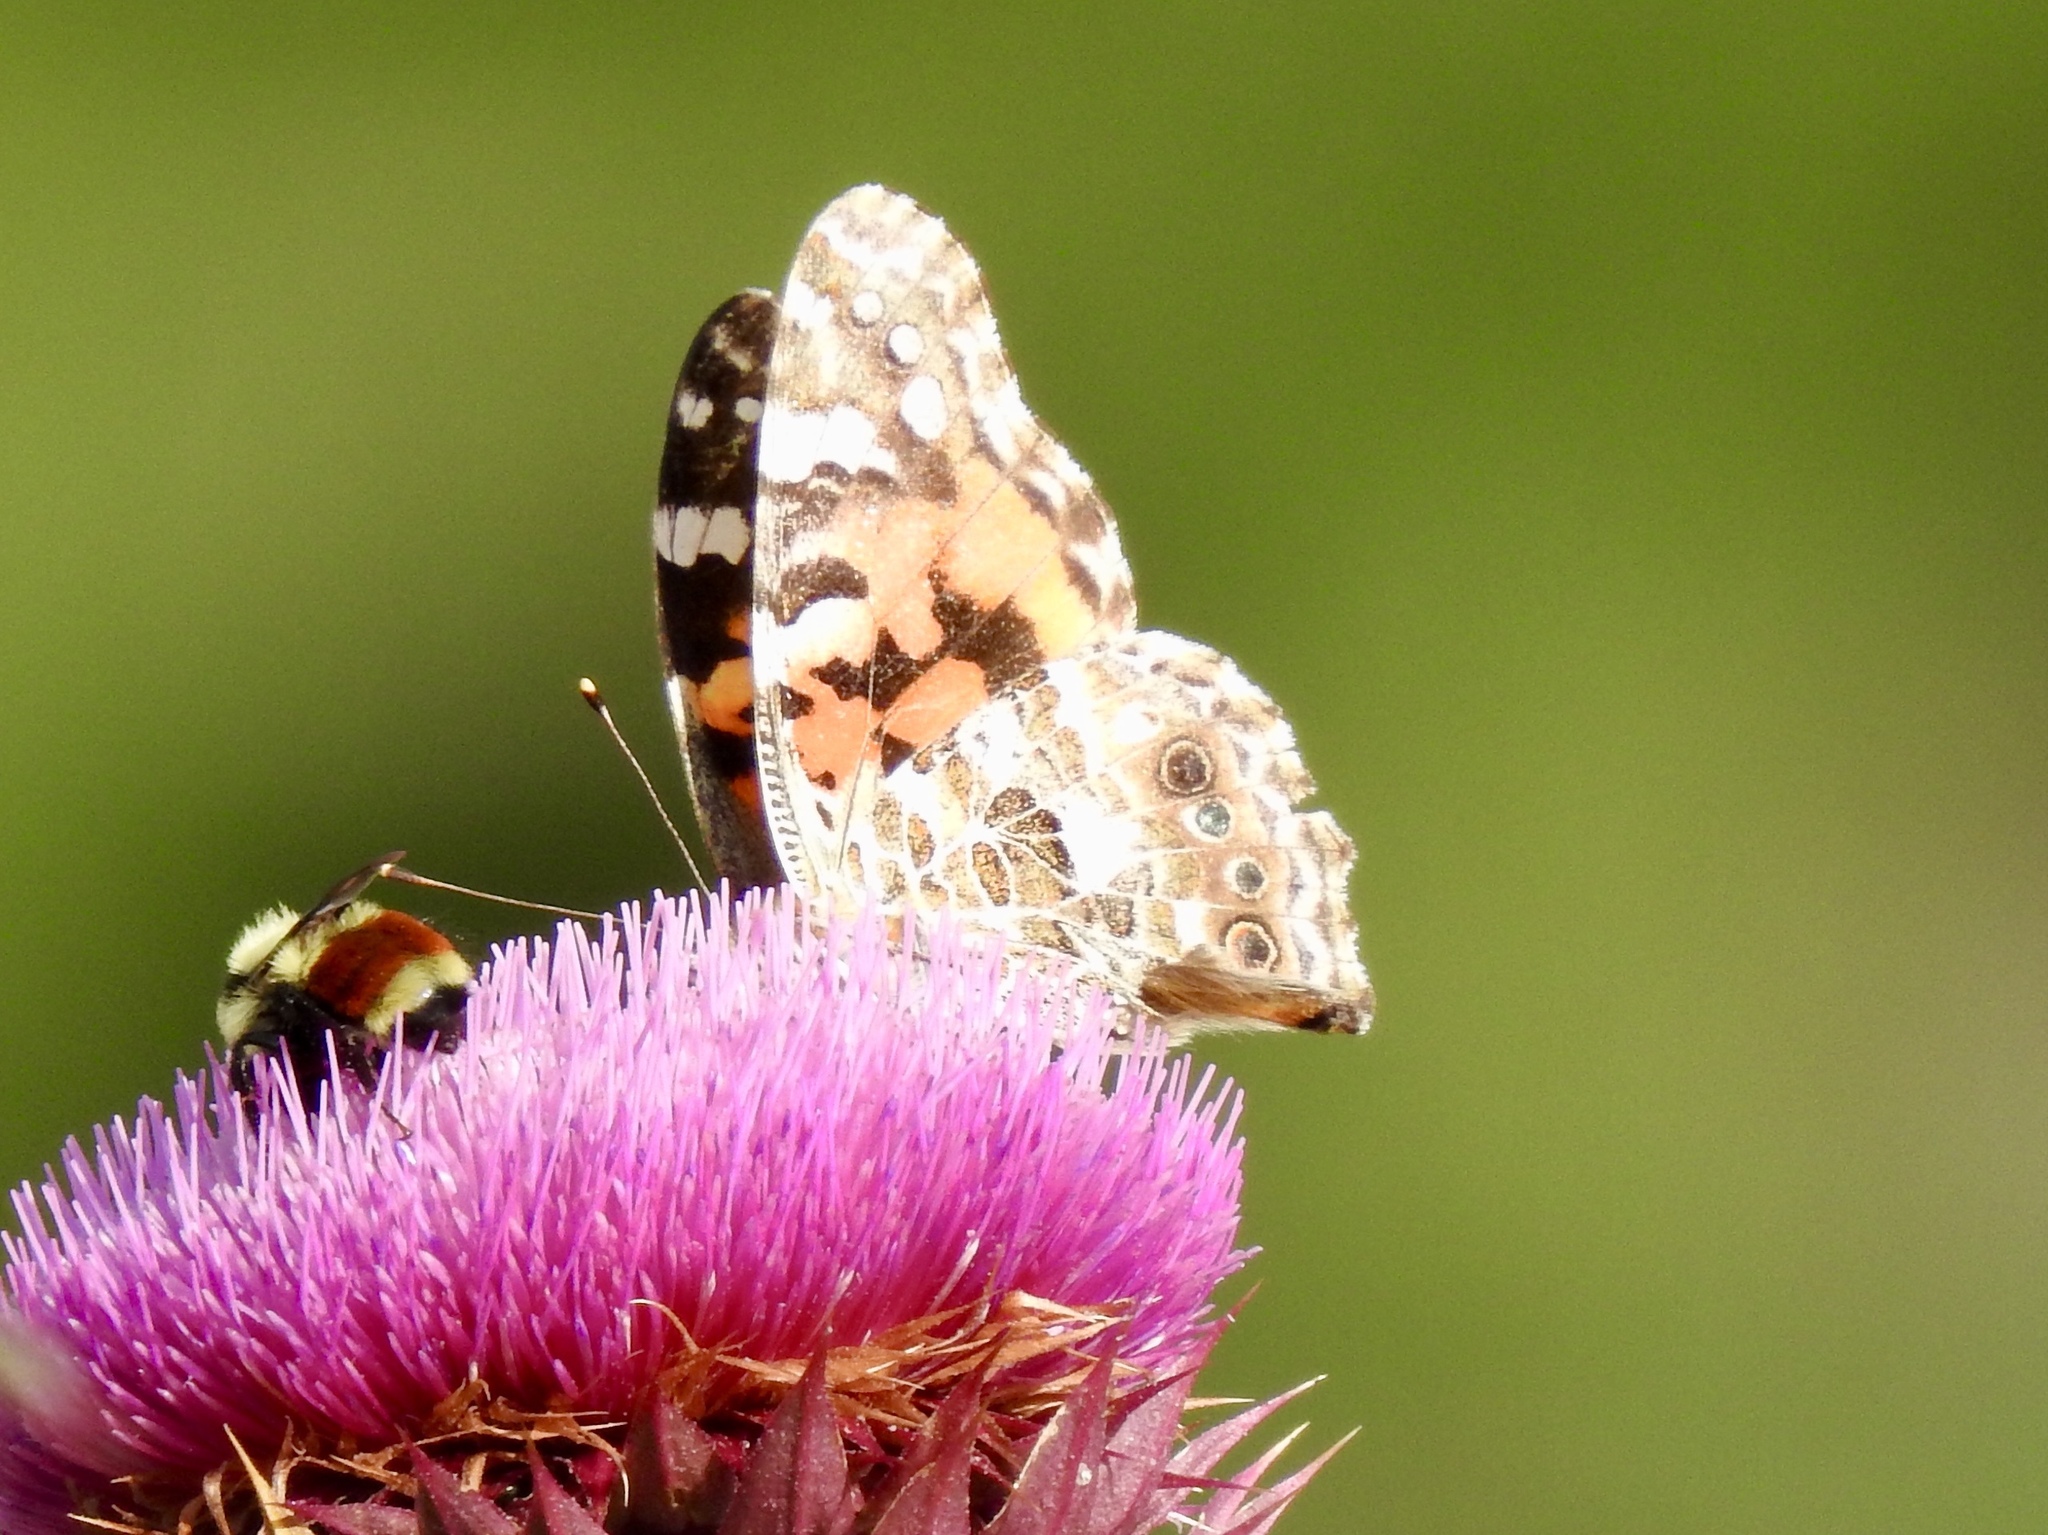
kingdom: Animalia
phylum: Arthropoda
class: Insecta
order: Lepidoptera
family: Nymphalidae
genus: Vanessa
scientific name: Vanessa cardui
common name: Painted lady
